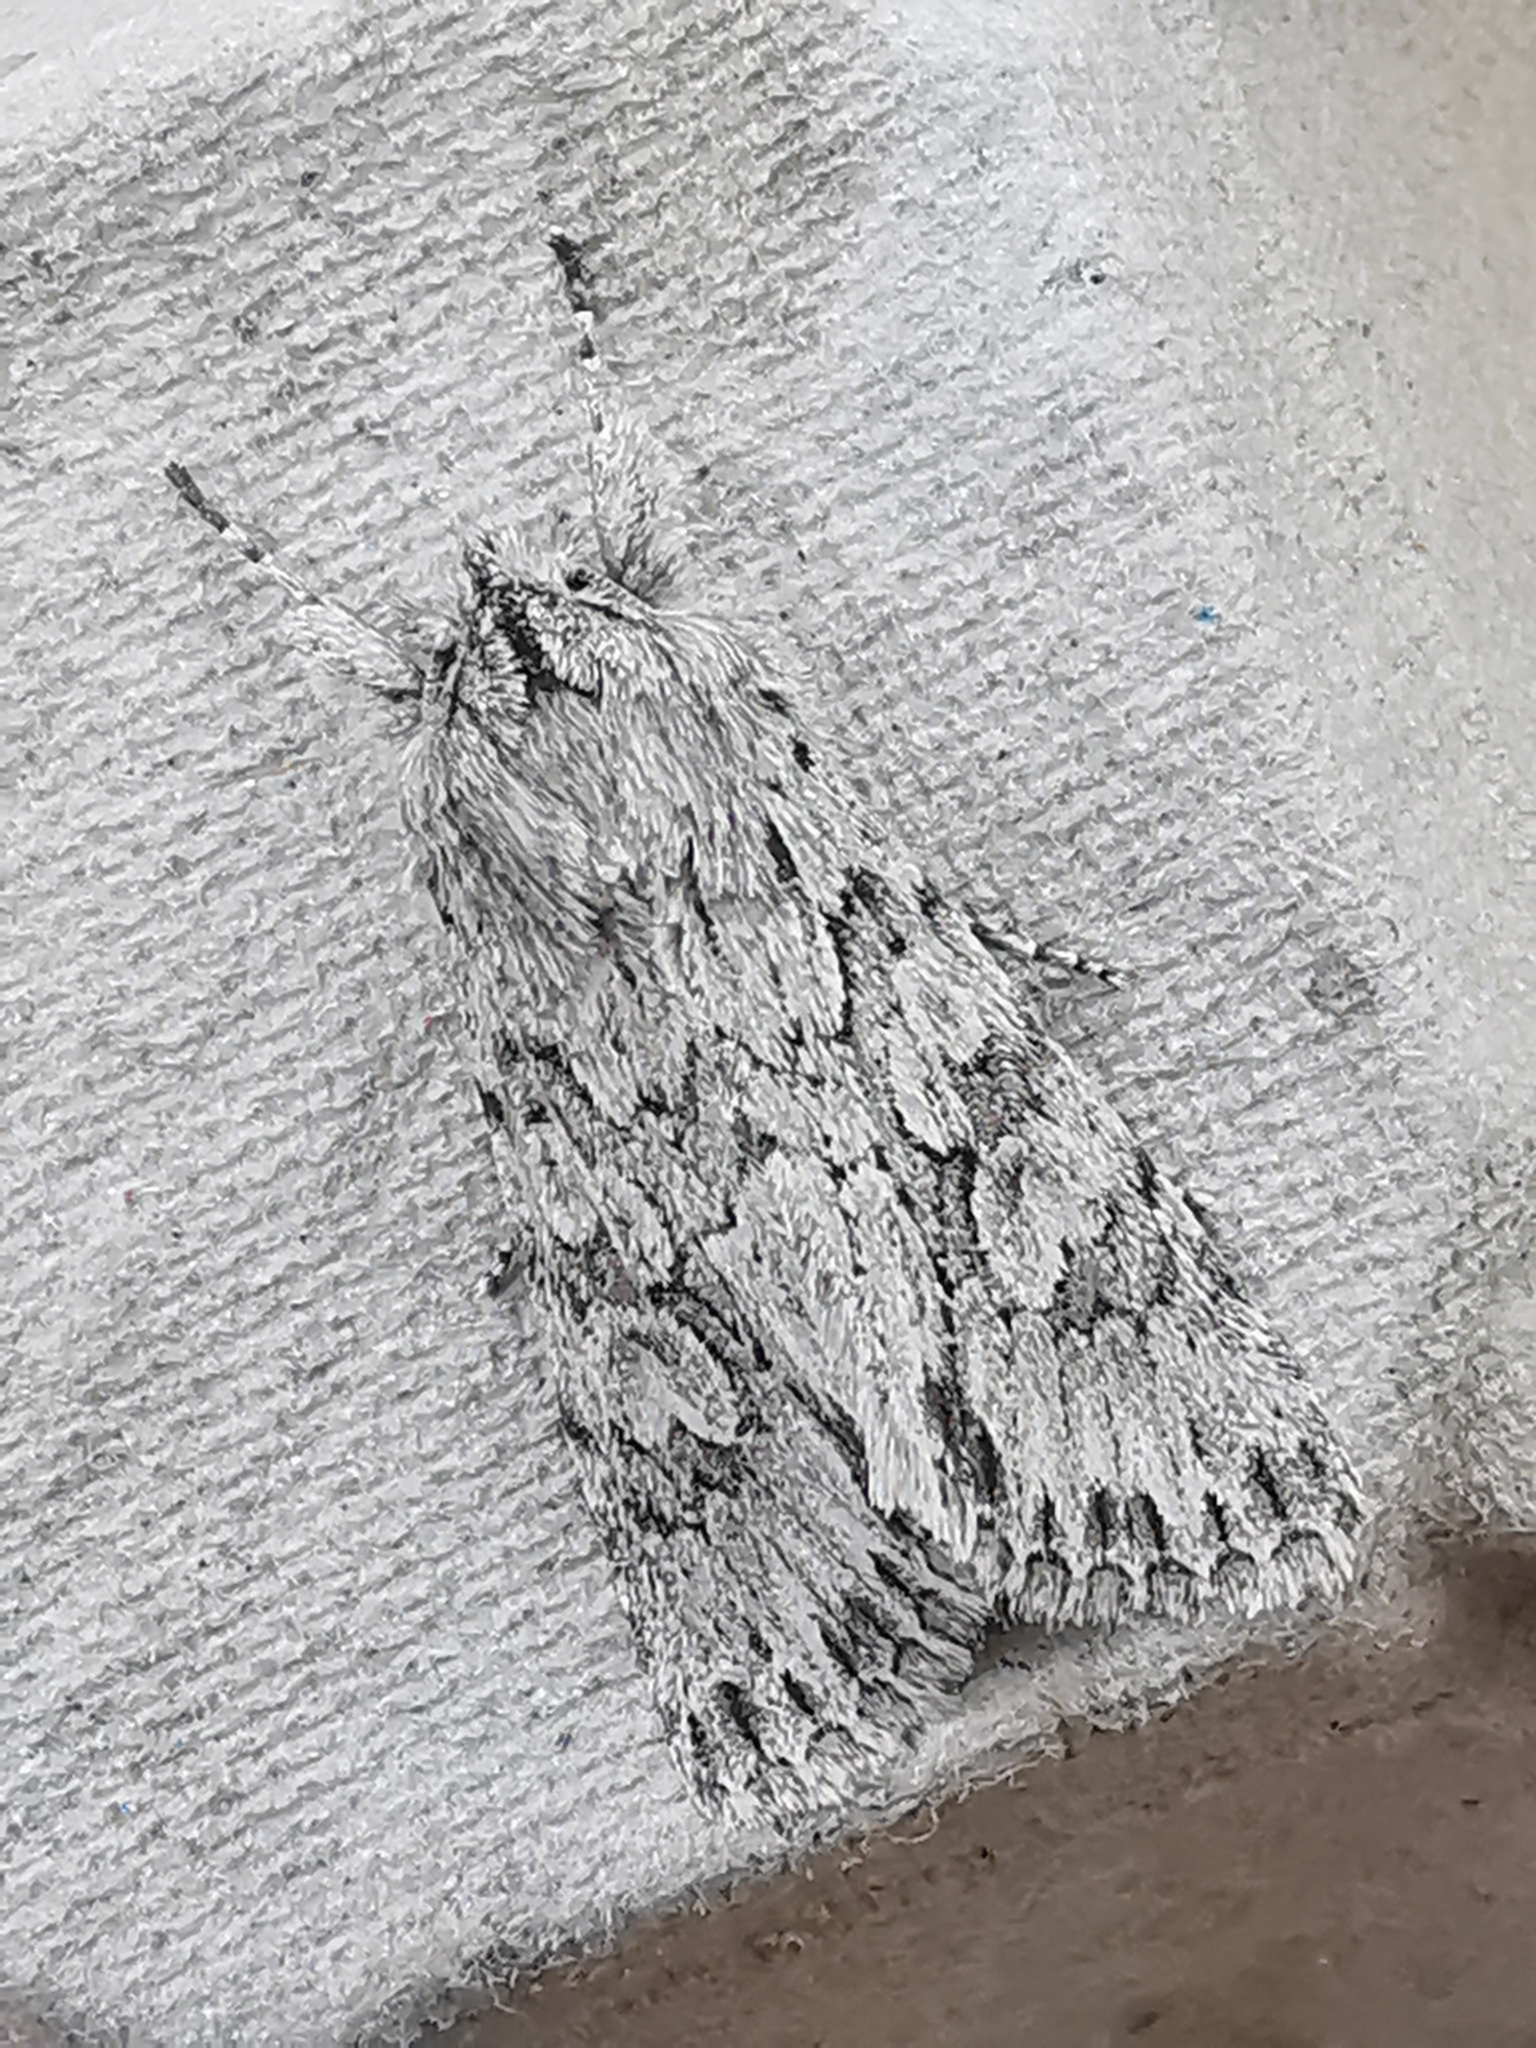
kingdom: Animalia
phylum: Arthropoda
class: Insecta
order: Lepidoptera
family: Noctuidae
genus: Xylocampa
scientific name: Xylocampa areola
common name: Early grey
